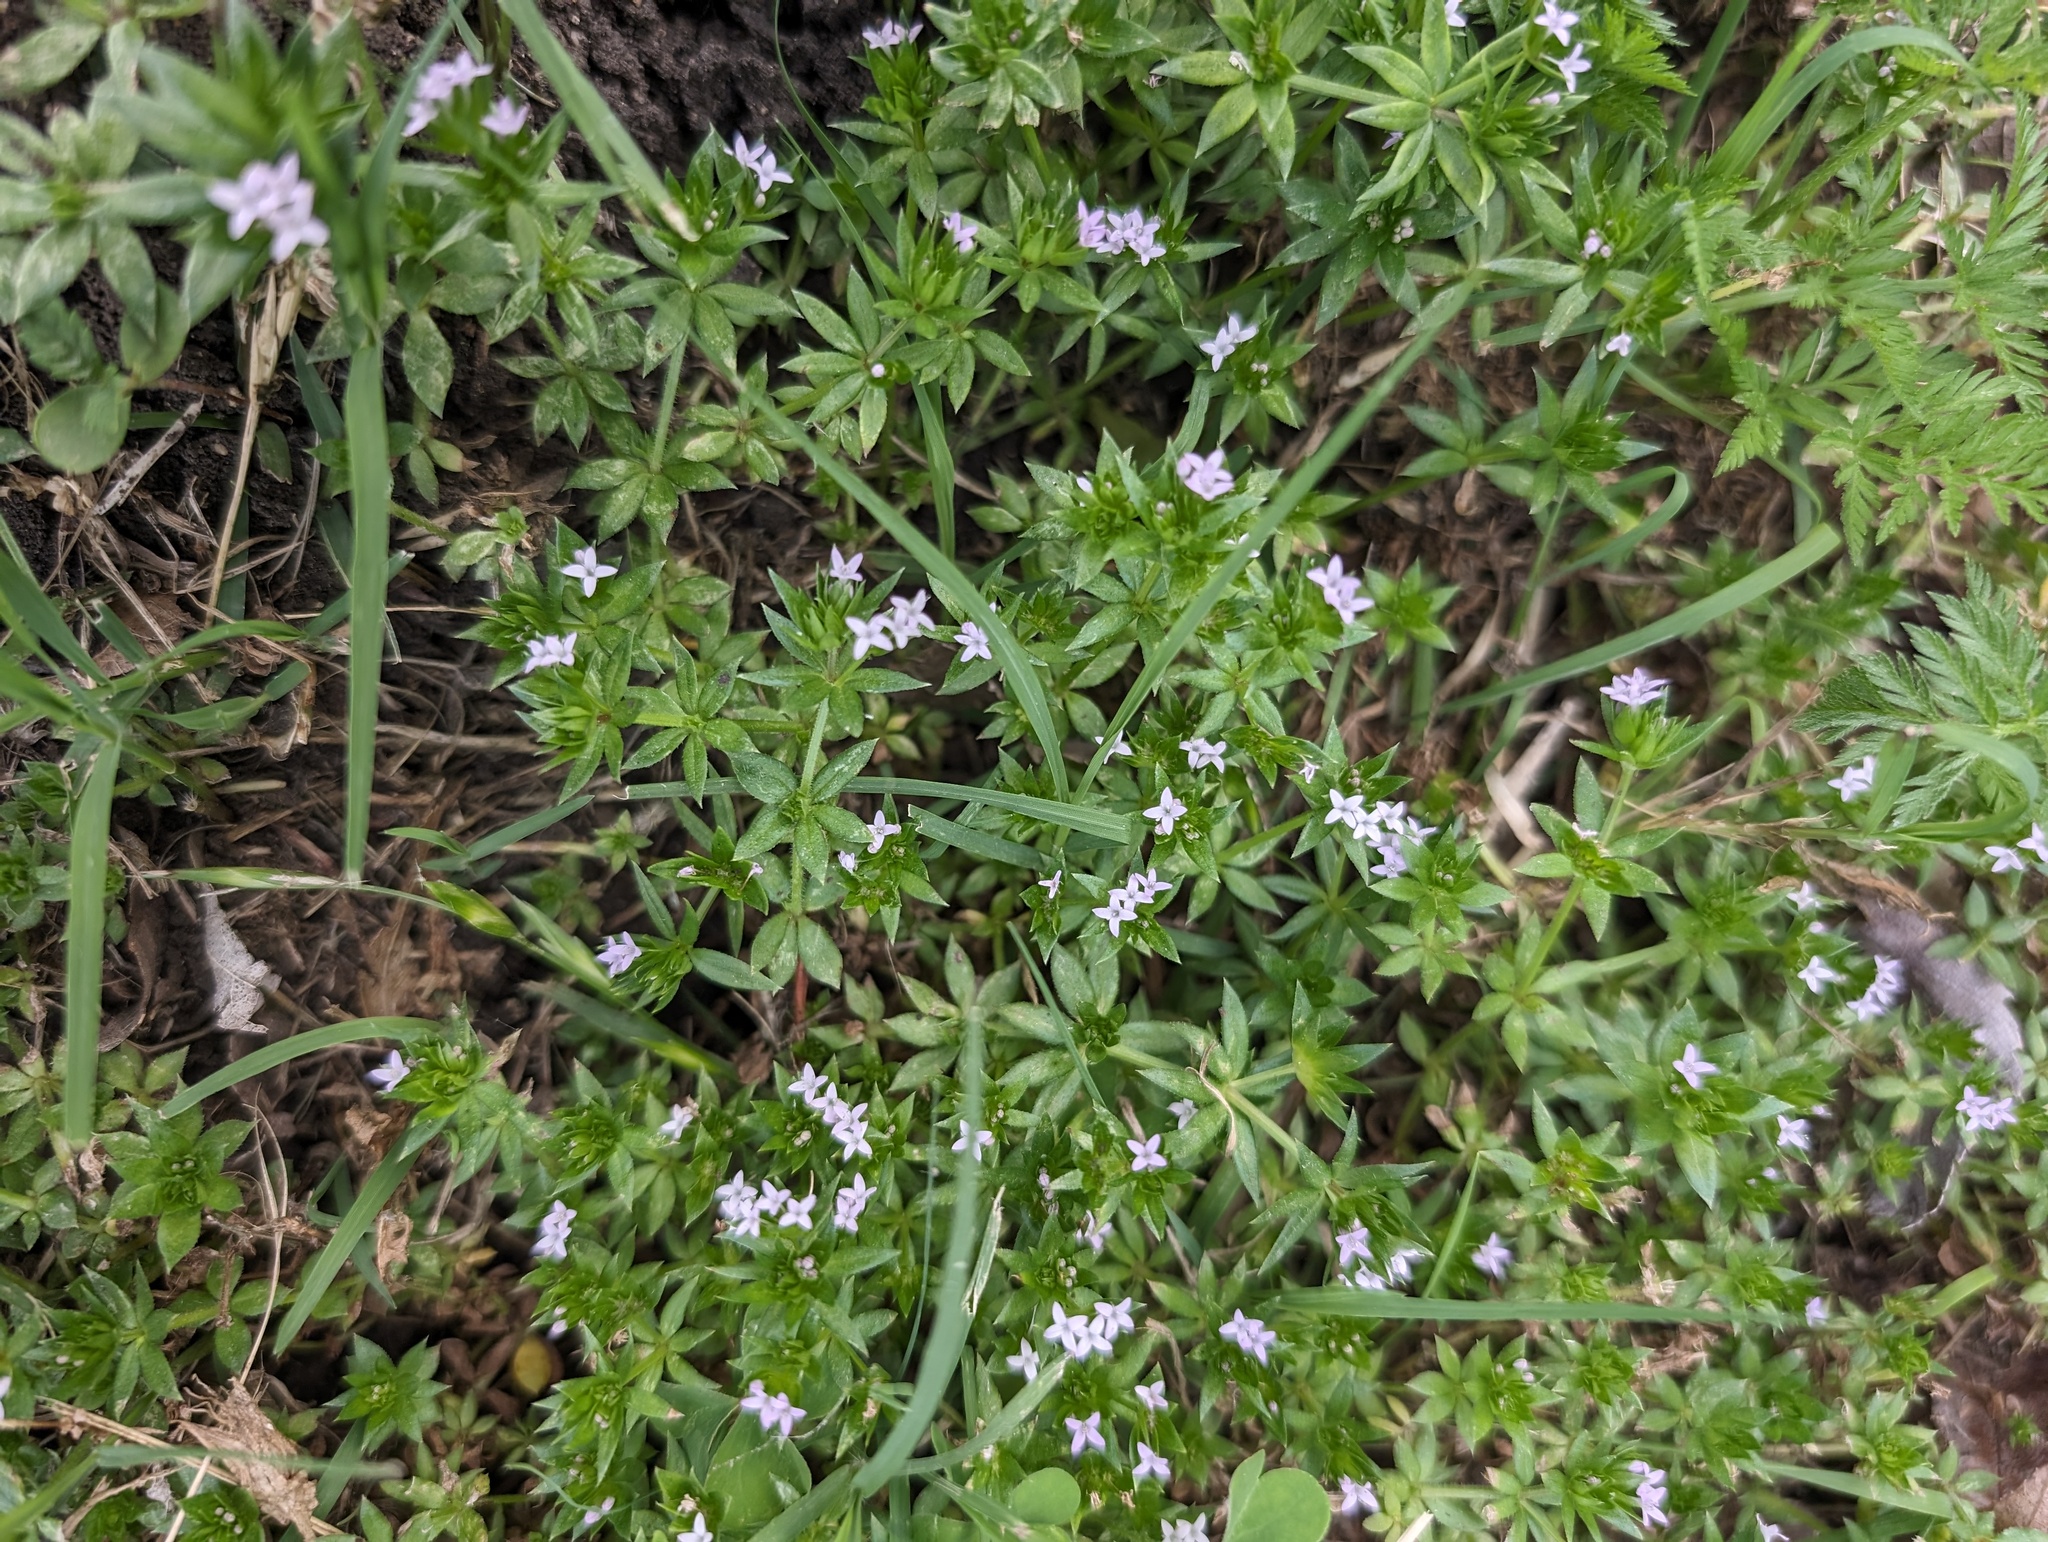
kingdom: Plantae
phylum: Tracheophyta
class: Magnoliopsida
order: Gentianales
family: Rubiaceae
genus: Sherardia
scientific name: Sherardia arvensis
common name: Field madder
